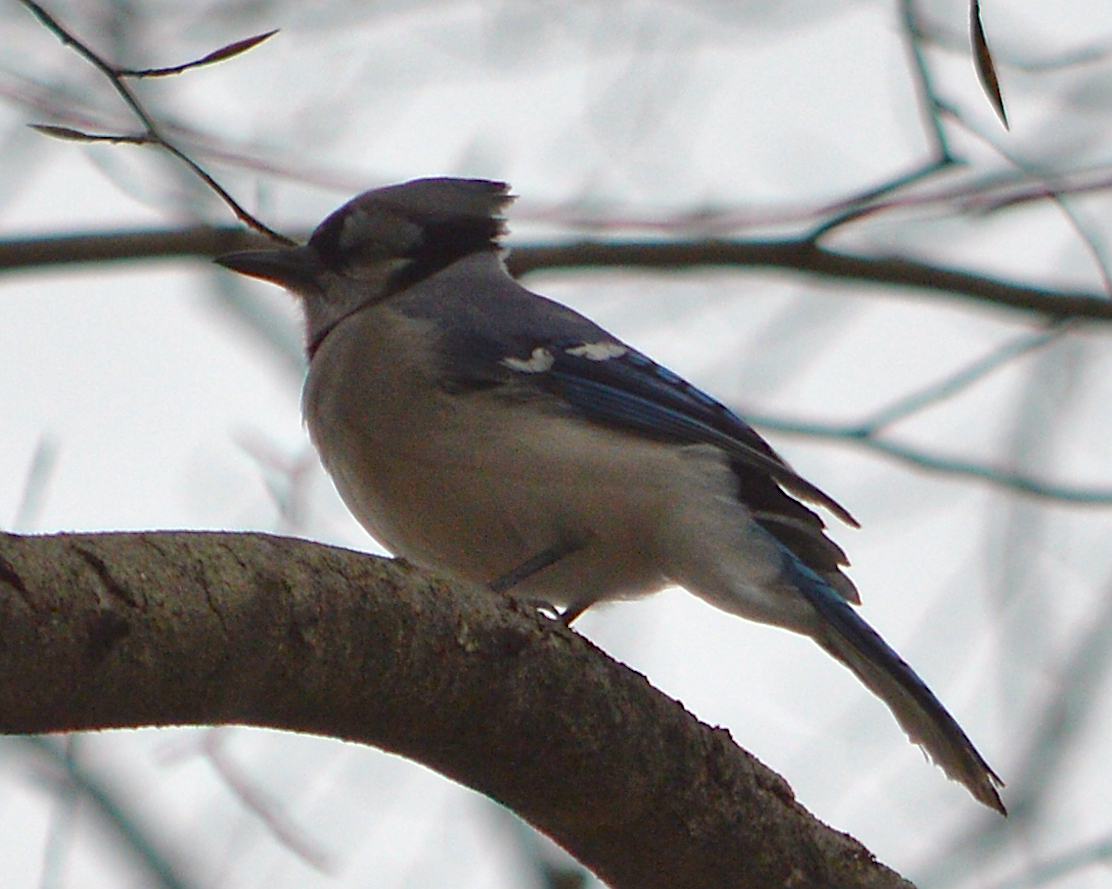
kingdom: Animalia
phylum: Chordata
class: Aves
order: Passeriformes
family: Corvidae
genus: Cyanocitta
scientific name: Cyanocitta cristata
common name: Blue jay
